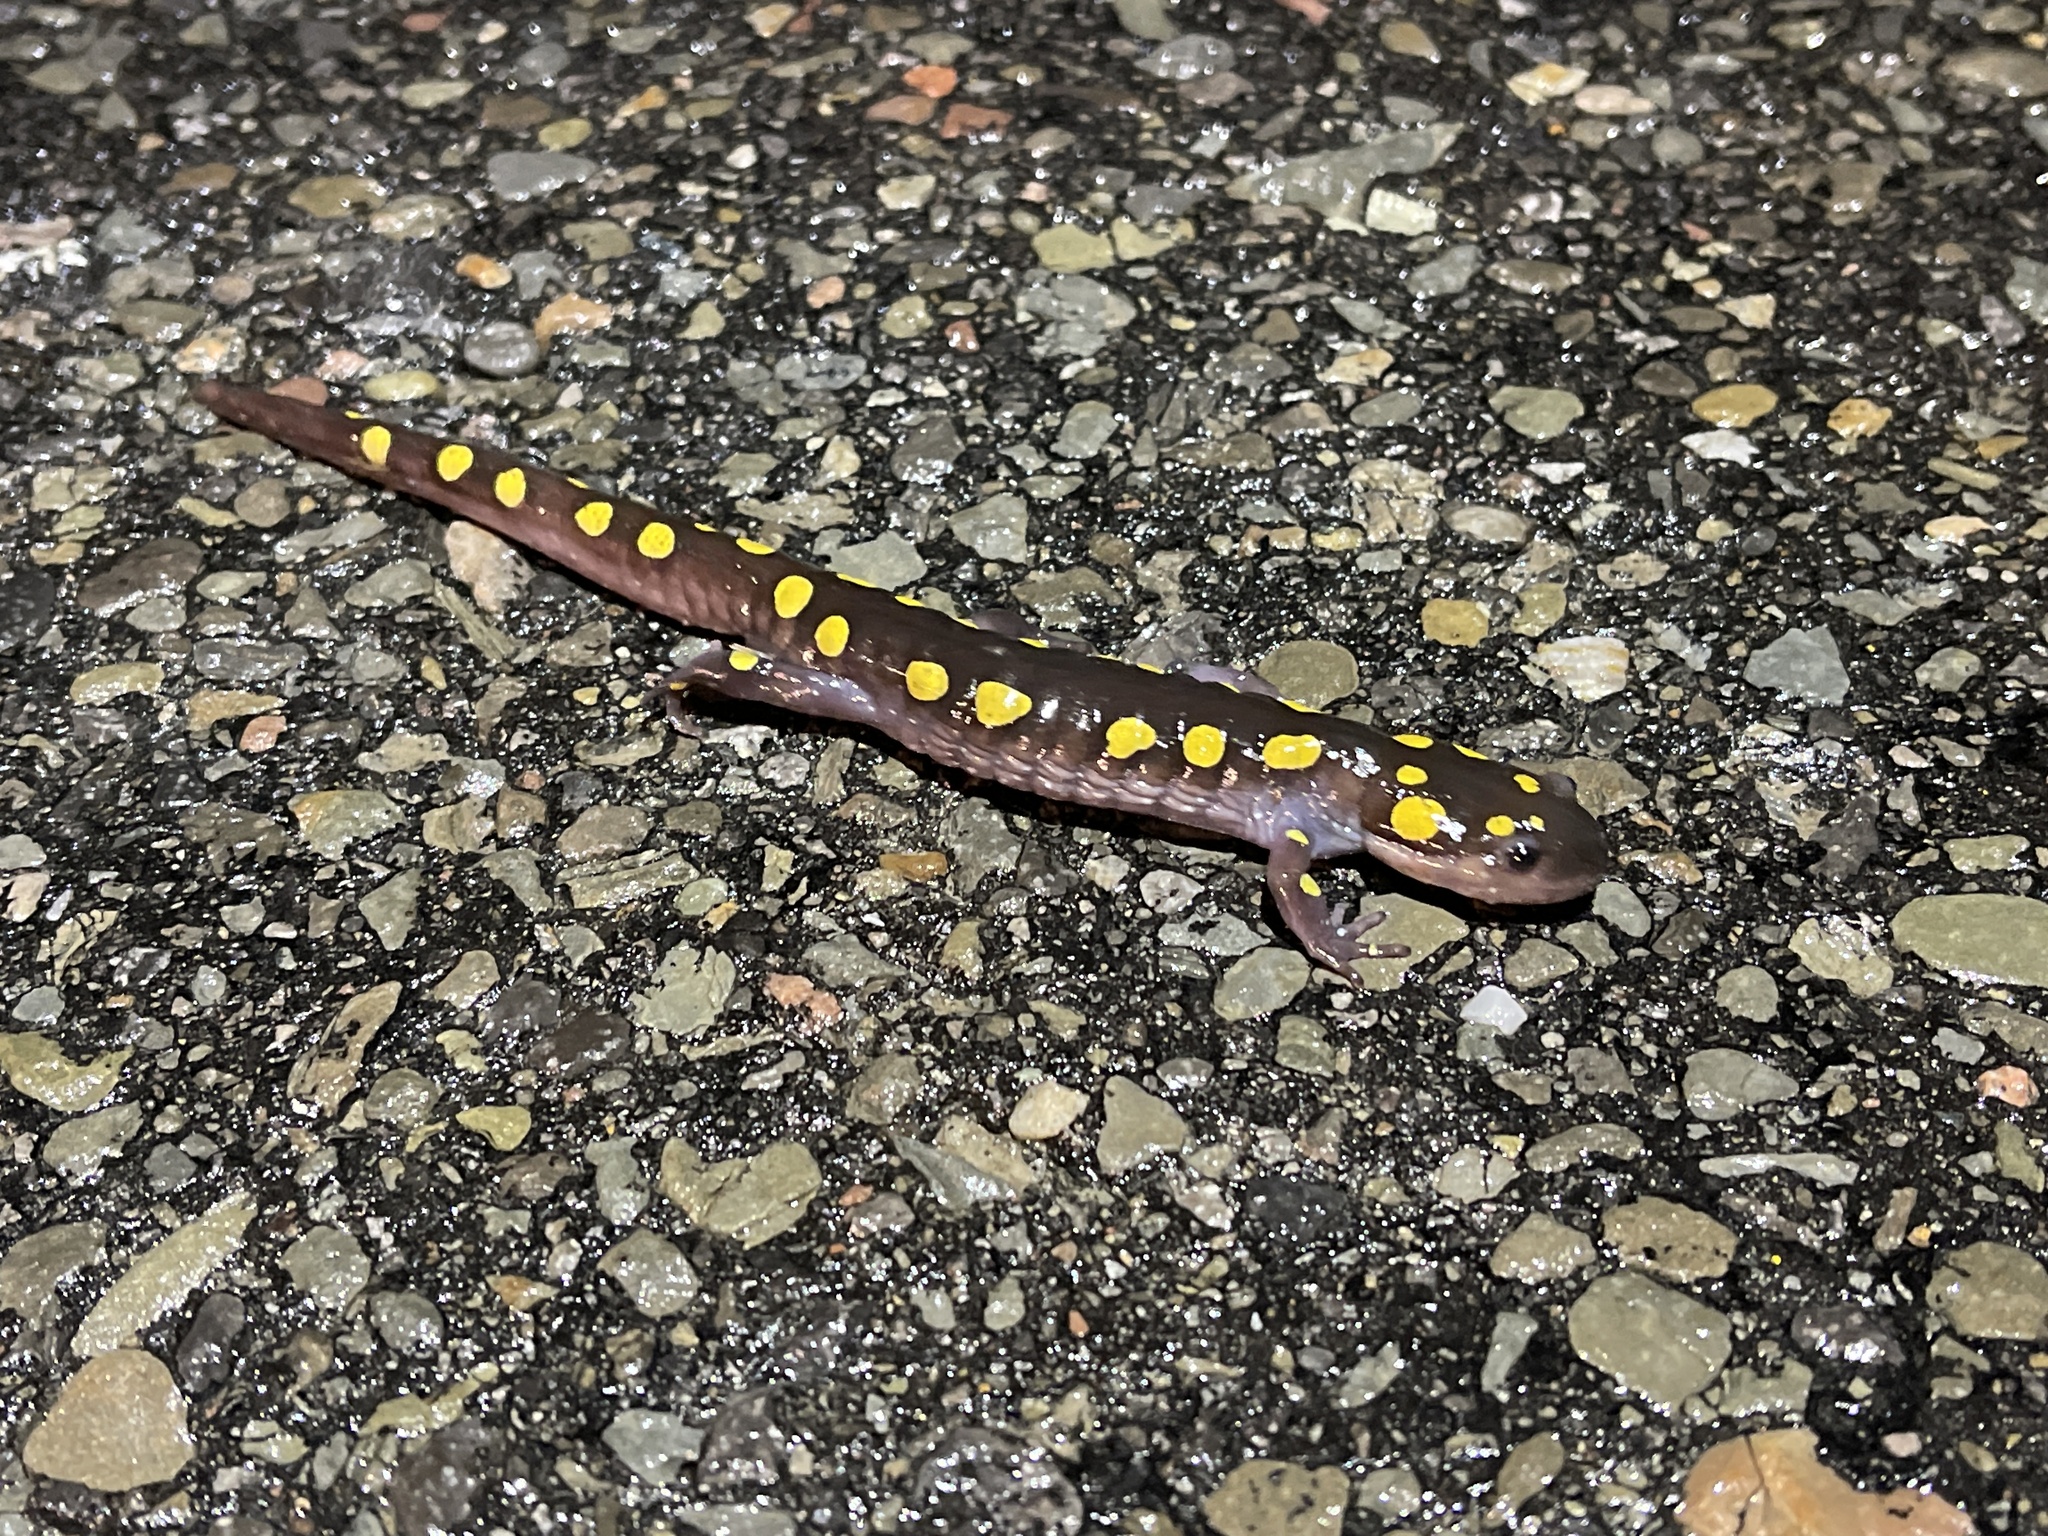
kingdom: Animalia
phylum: Chordata
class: Amphibia
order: Caudata
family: Ambystomatidae
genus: Ambystoma
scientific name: Ambystoma maculatum
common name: Spotted salamander
